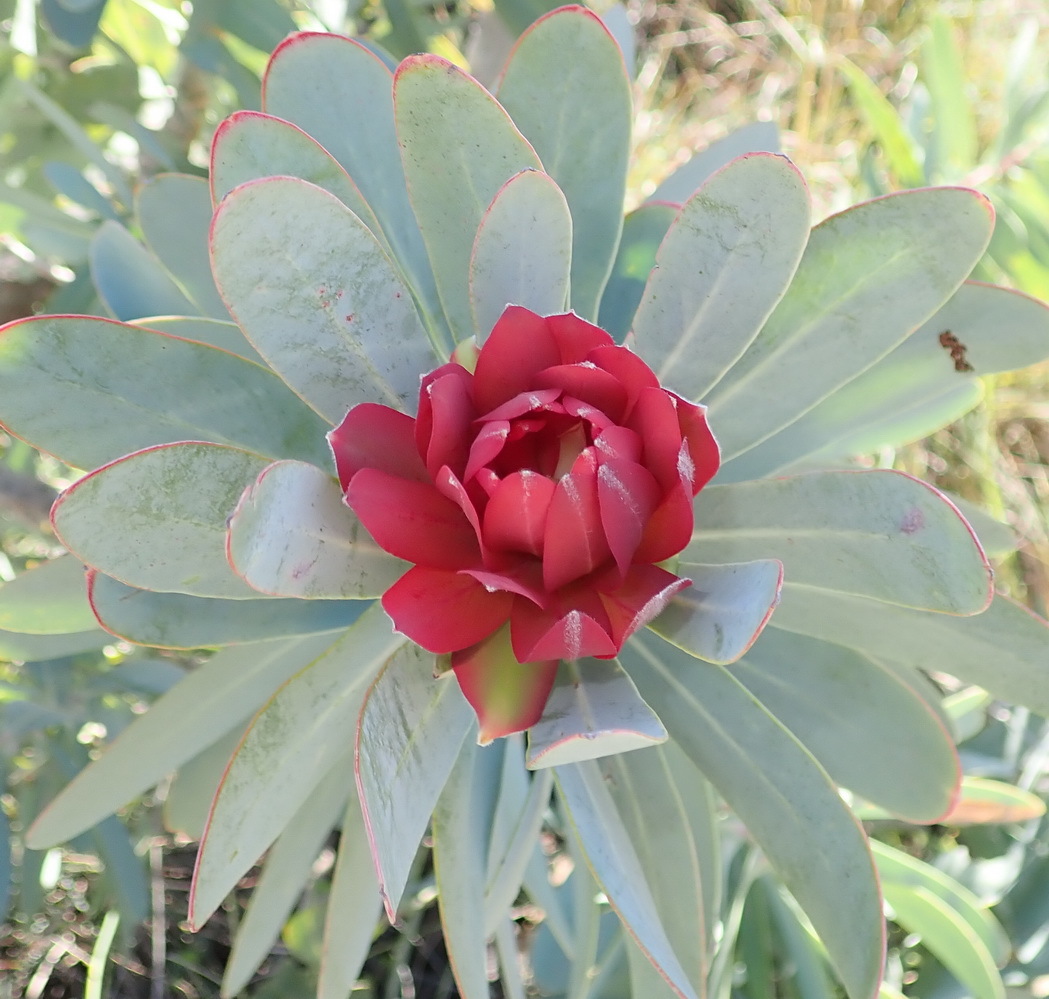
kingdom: Plantae
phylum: Tracheophyta
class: Magnoliopsida
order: Proteales
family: Proteaceae
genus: Protea
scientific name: Protea nitida
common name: Tree protea
